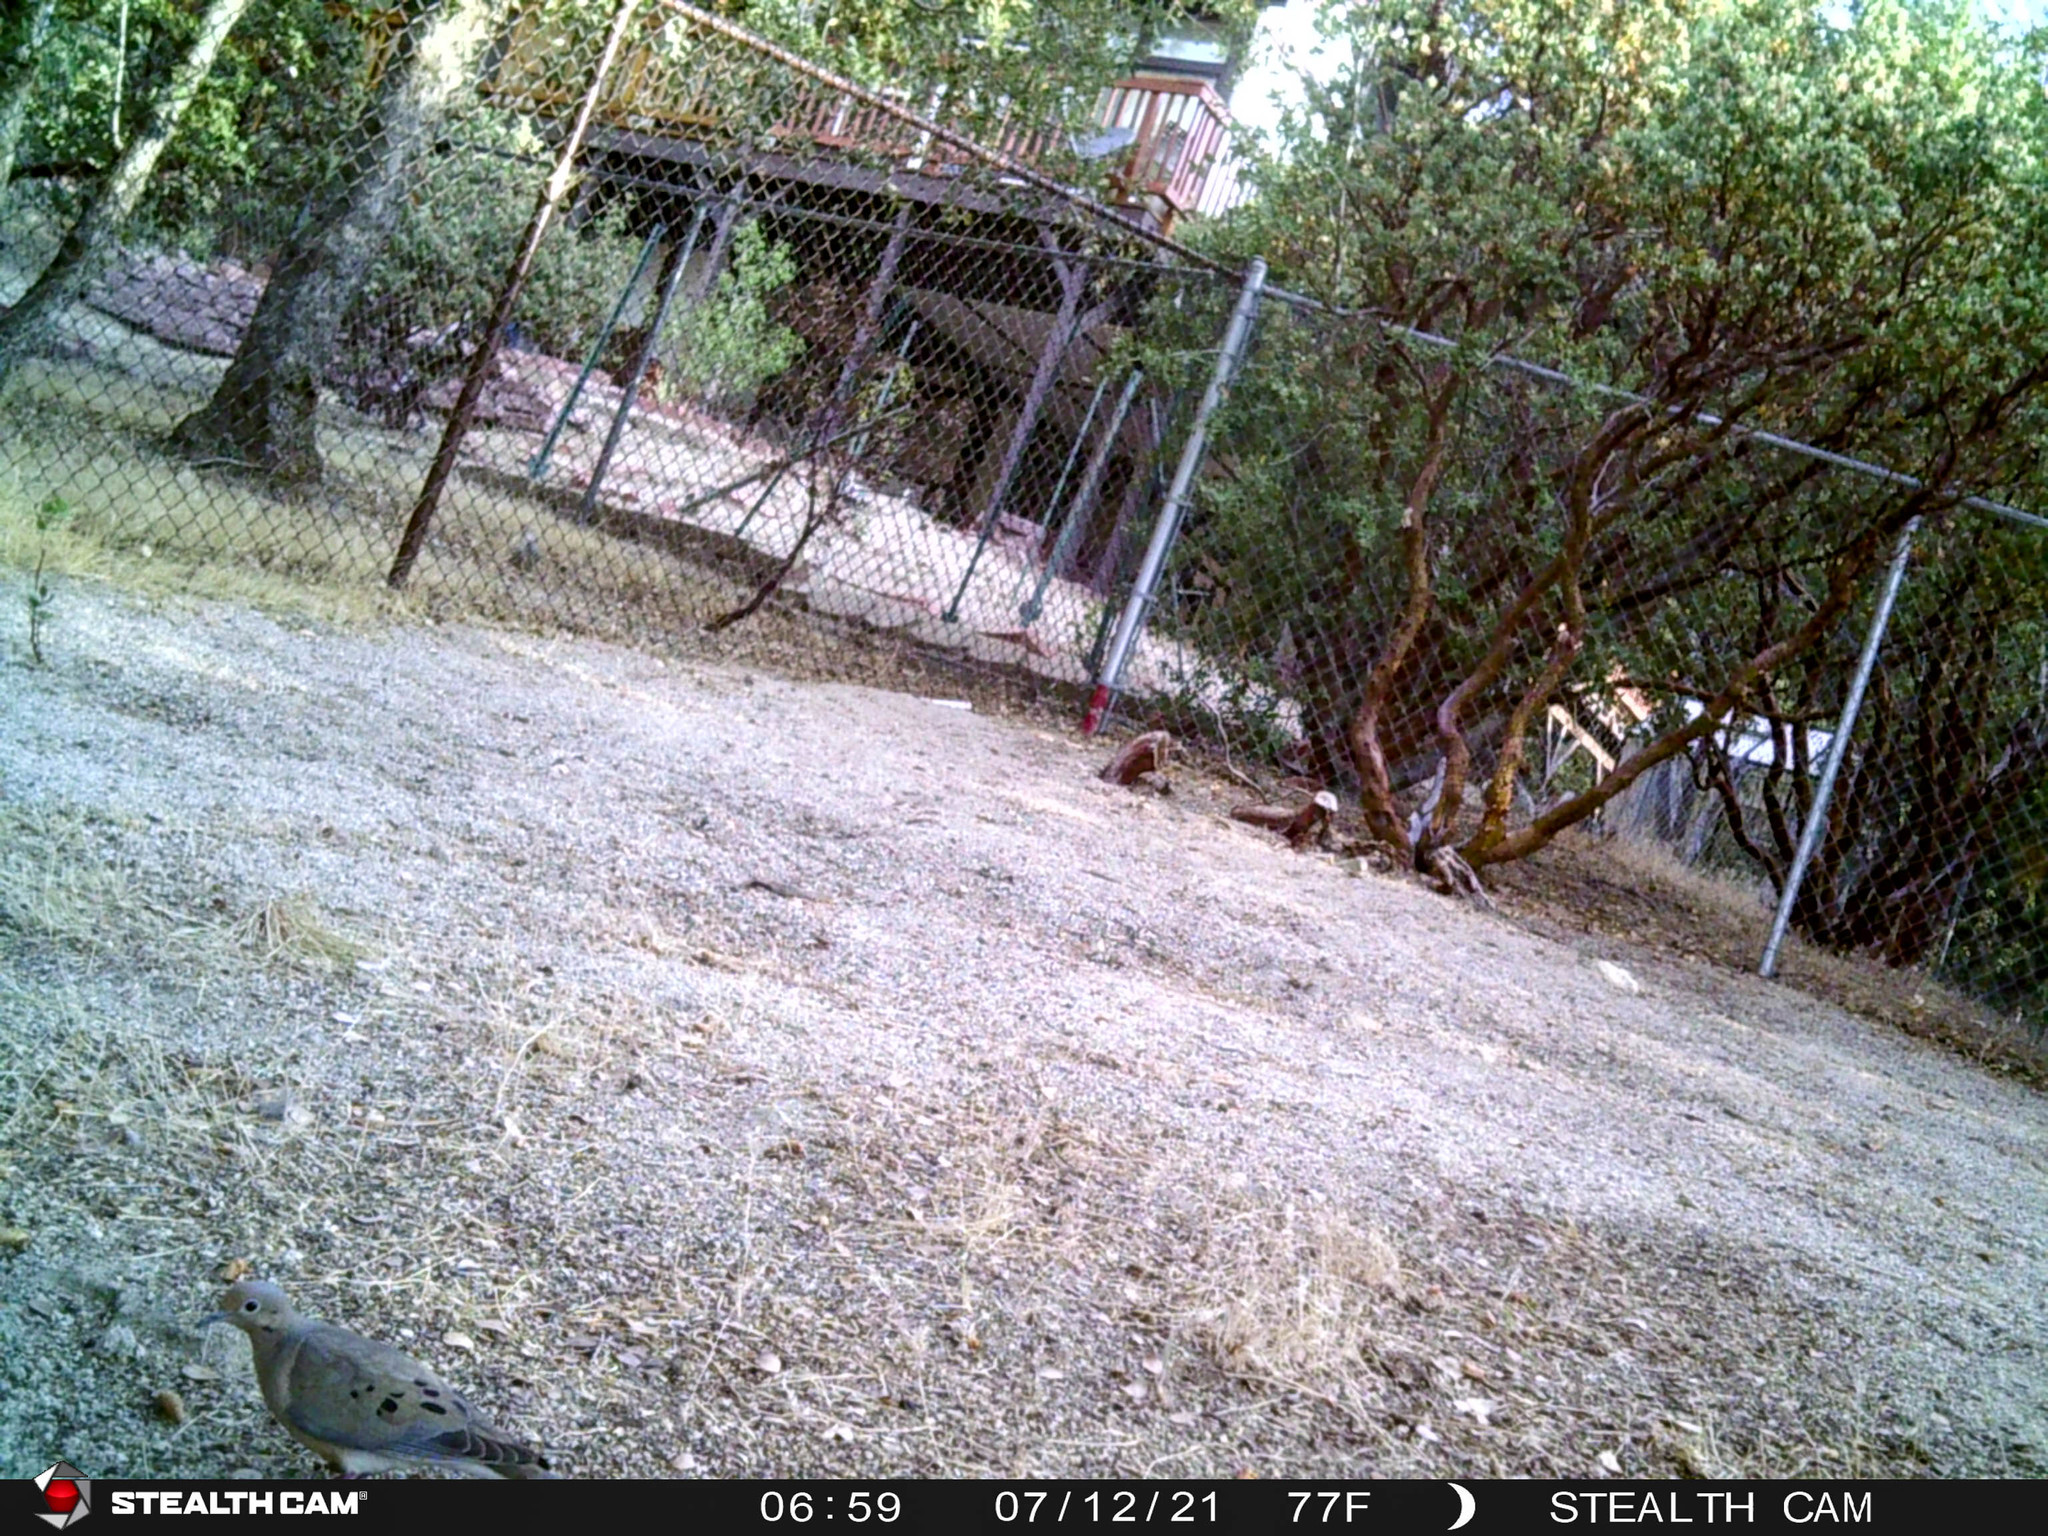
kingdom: Animalia
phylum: Chordata
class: Aves
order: Columbiformes
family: Columbidae
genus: Zenaida
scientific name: Zenaida macroura
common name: Mourning dove
